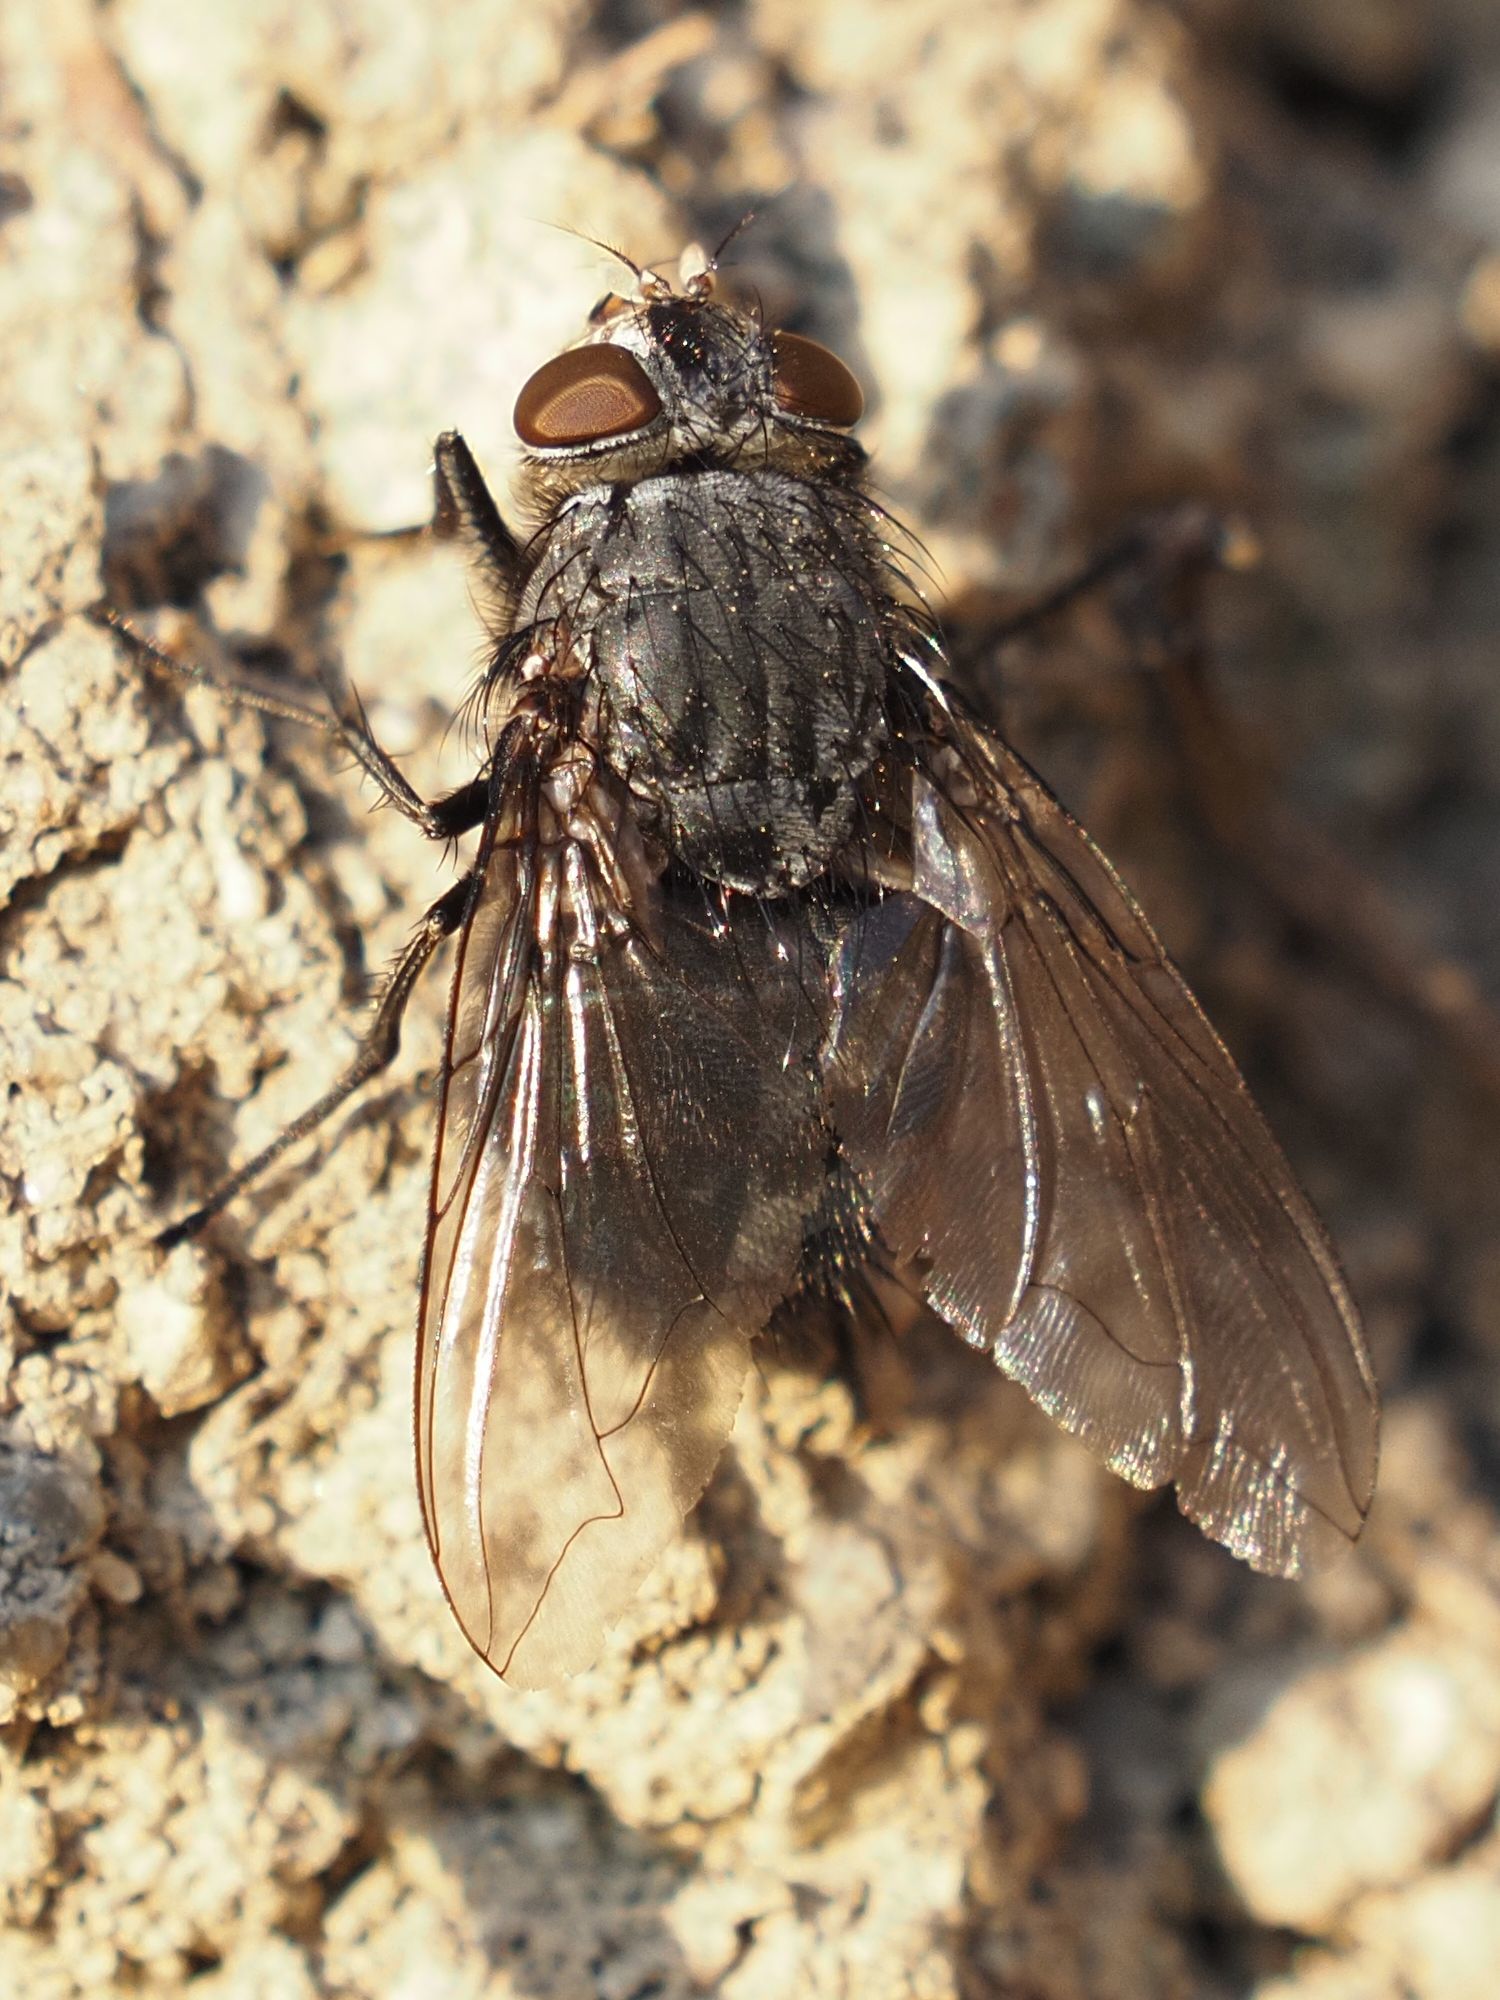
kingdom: Animalia
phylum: Arthropoda
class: Insecta
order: Diptera
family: Calliphoridae
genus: Calliphora
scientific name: Calliphora vicina
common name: Common blow flie
